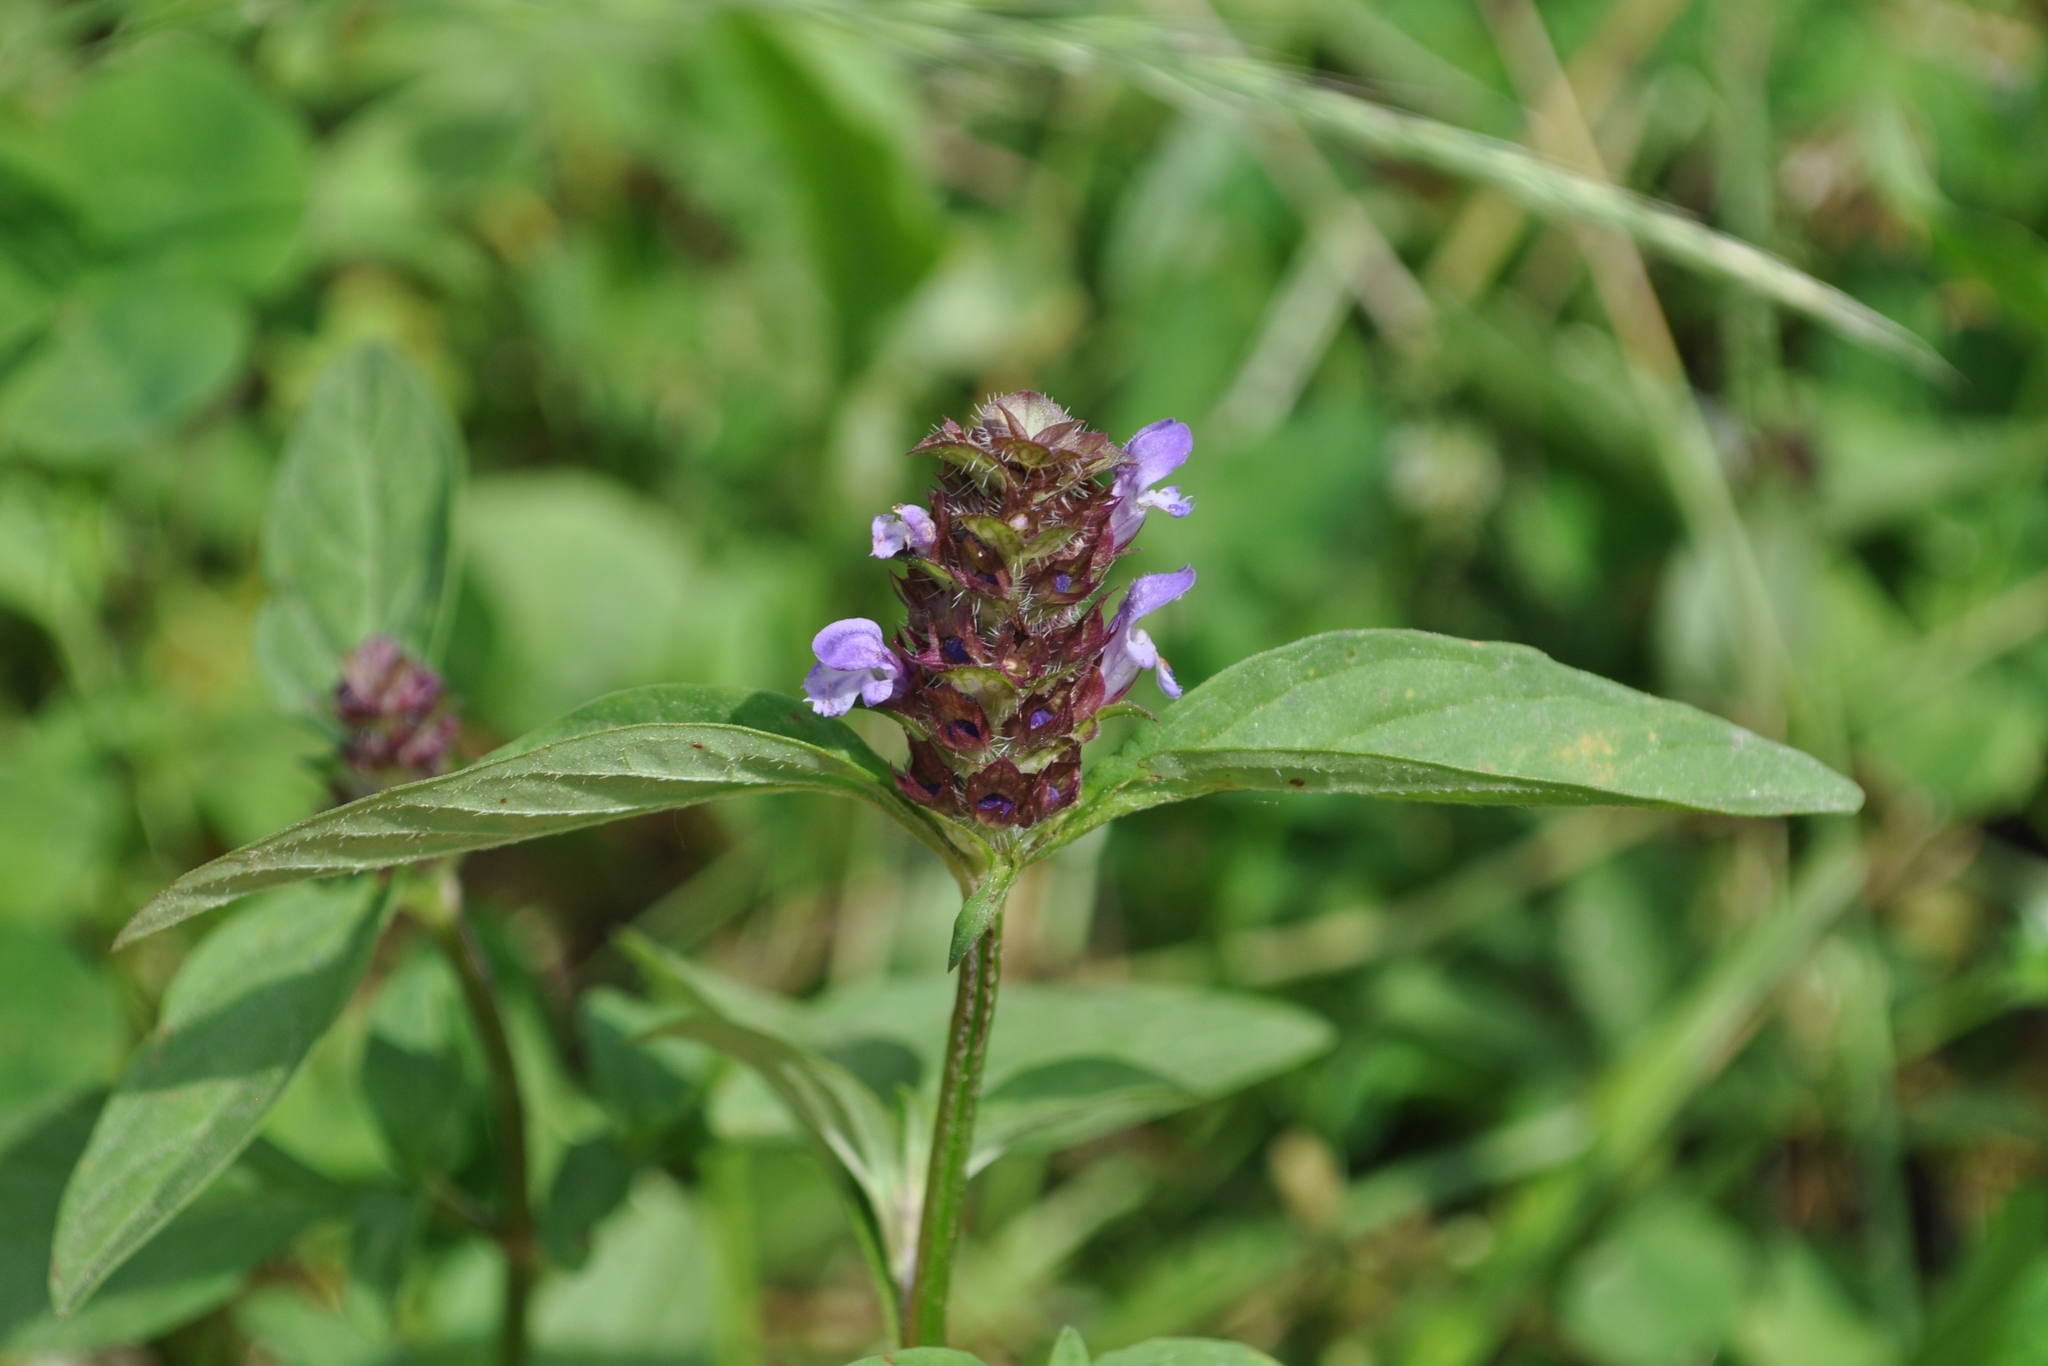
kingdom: Plantae
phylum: Tracheophyta
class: Magnoliopsida
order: Lamiales
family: Lamiaceae
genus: Prunella
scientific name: Prunella vulgaris
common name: Heal-all
